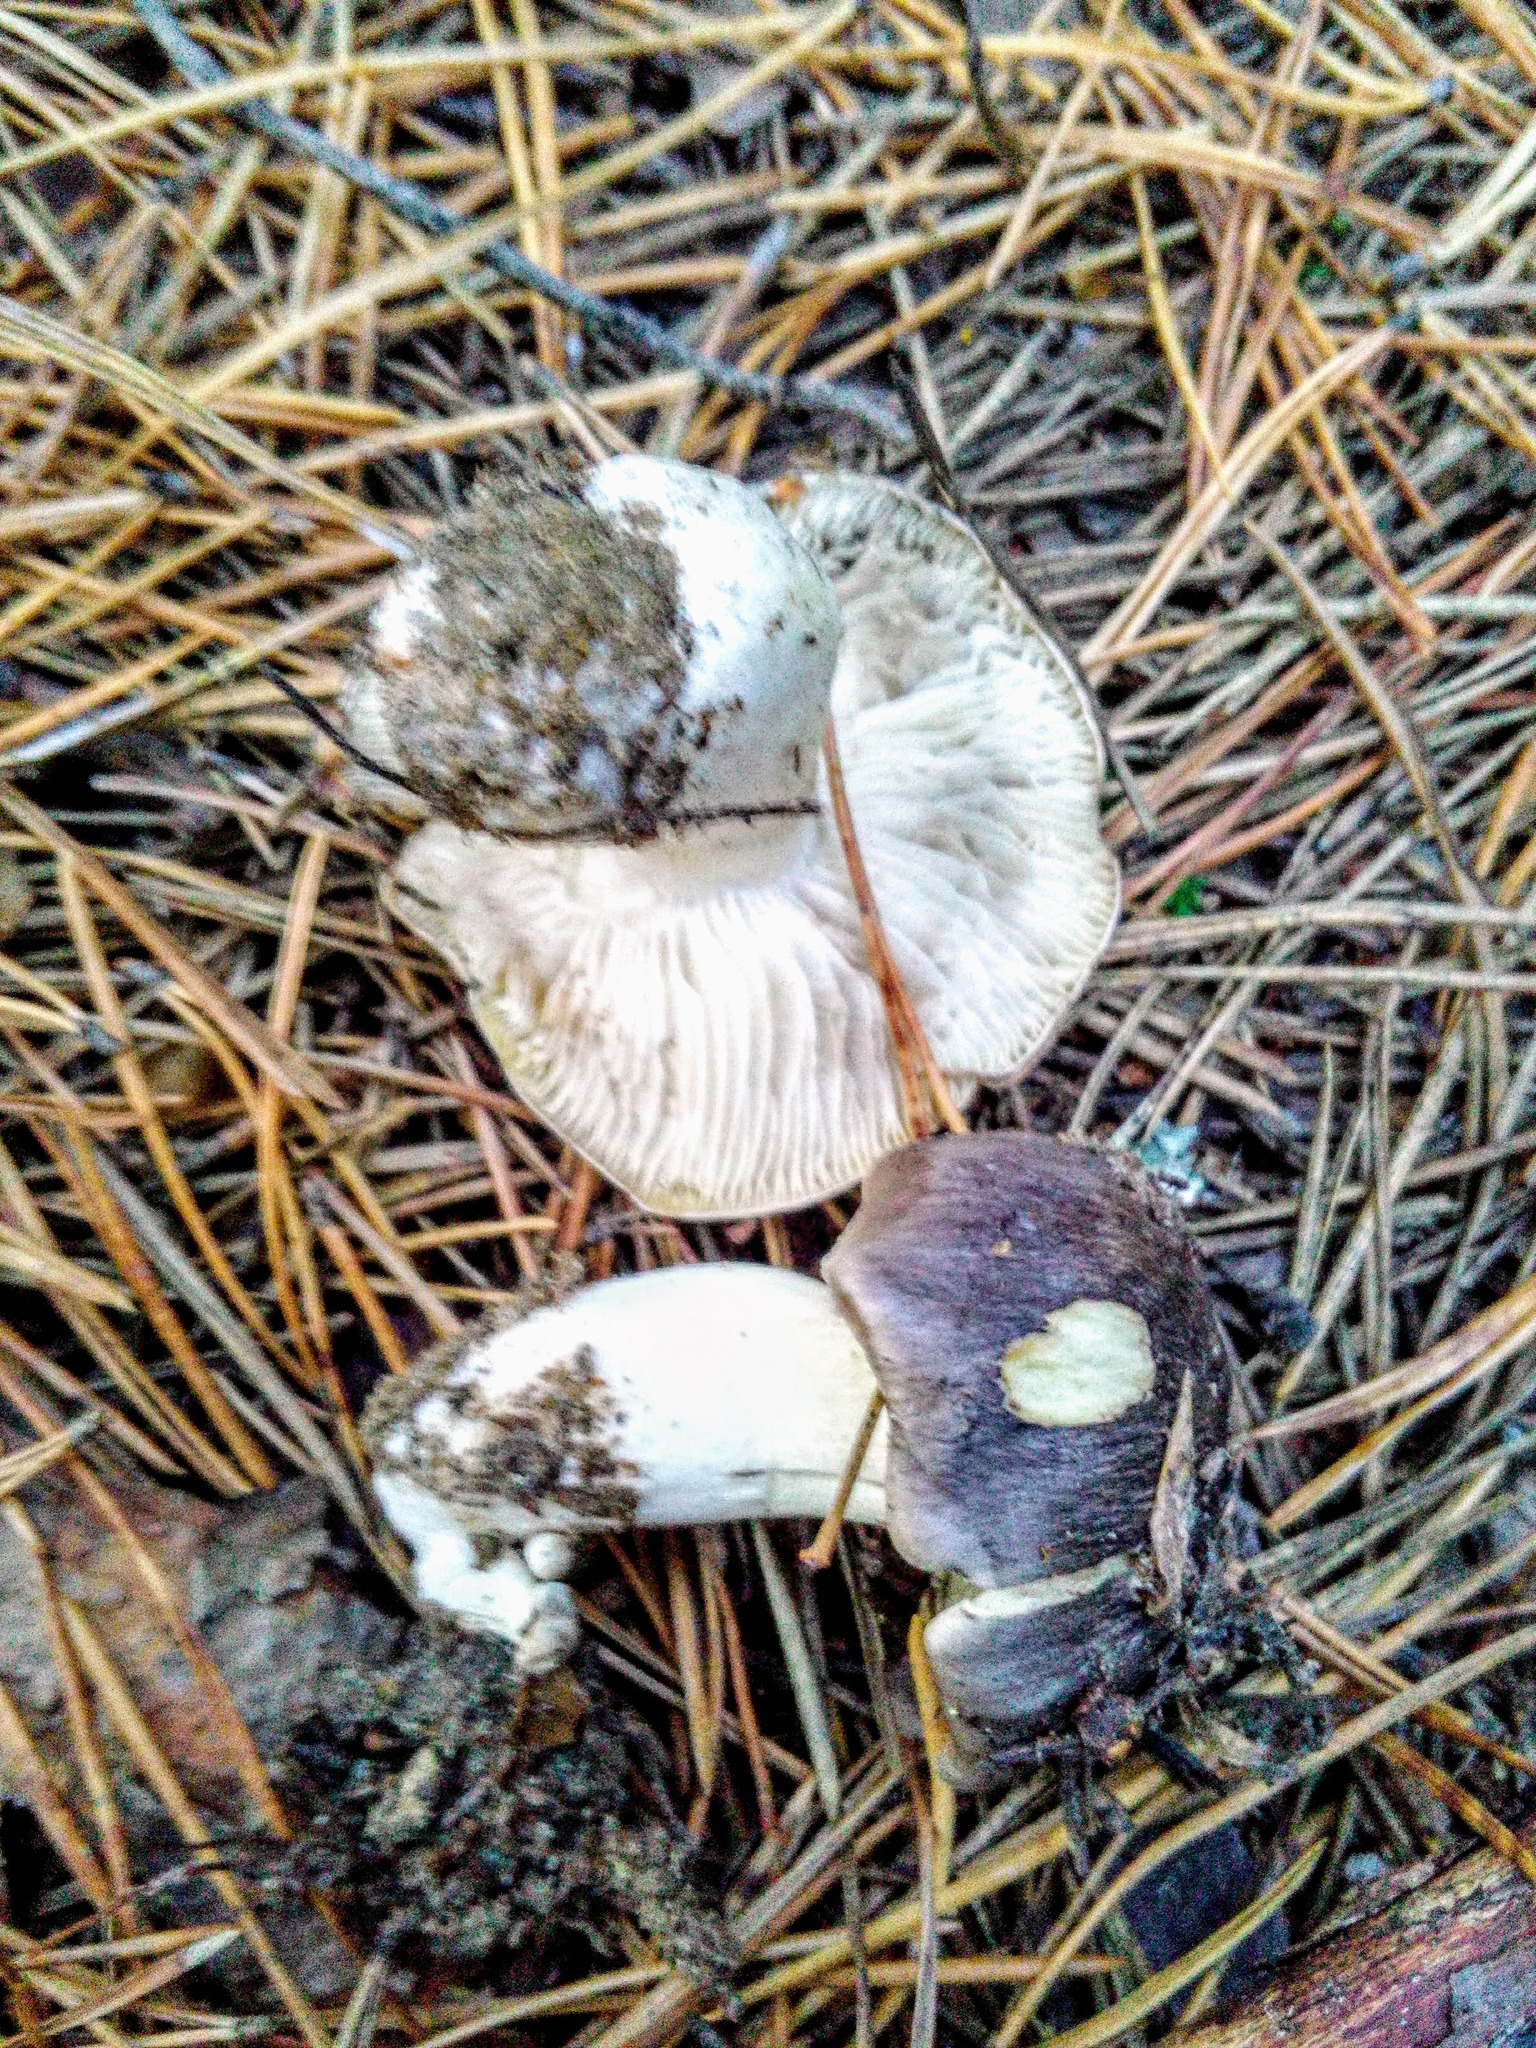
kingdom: Fungi
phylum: Basidiomycota
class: Agaricomycetes
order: Agaricales
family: Tricholomataceae
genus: Tricholoma
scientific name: Tricholoma terreum
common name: Grey knight
